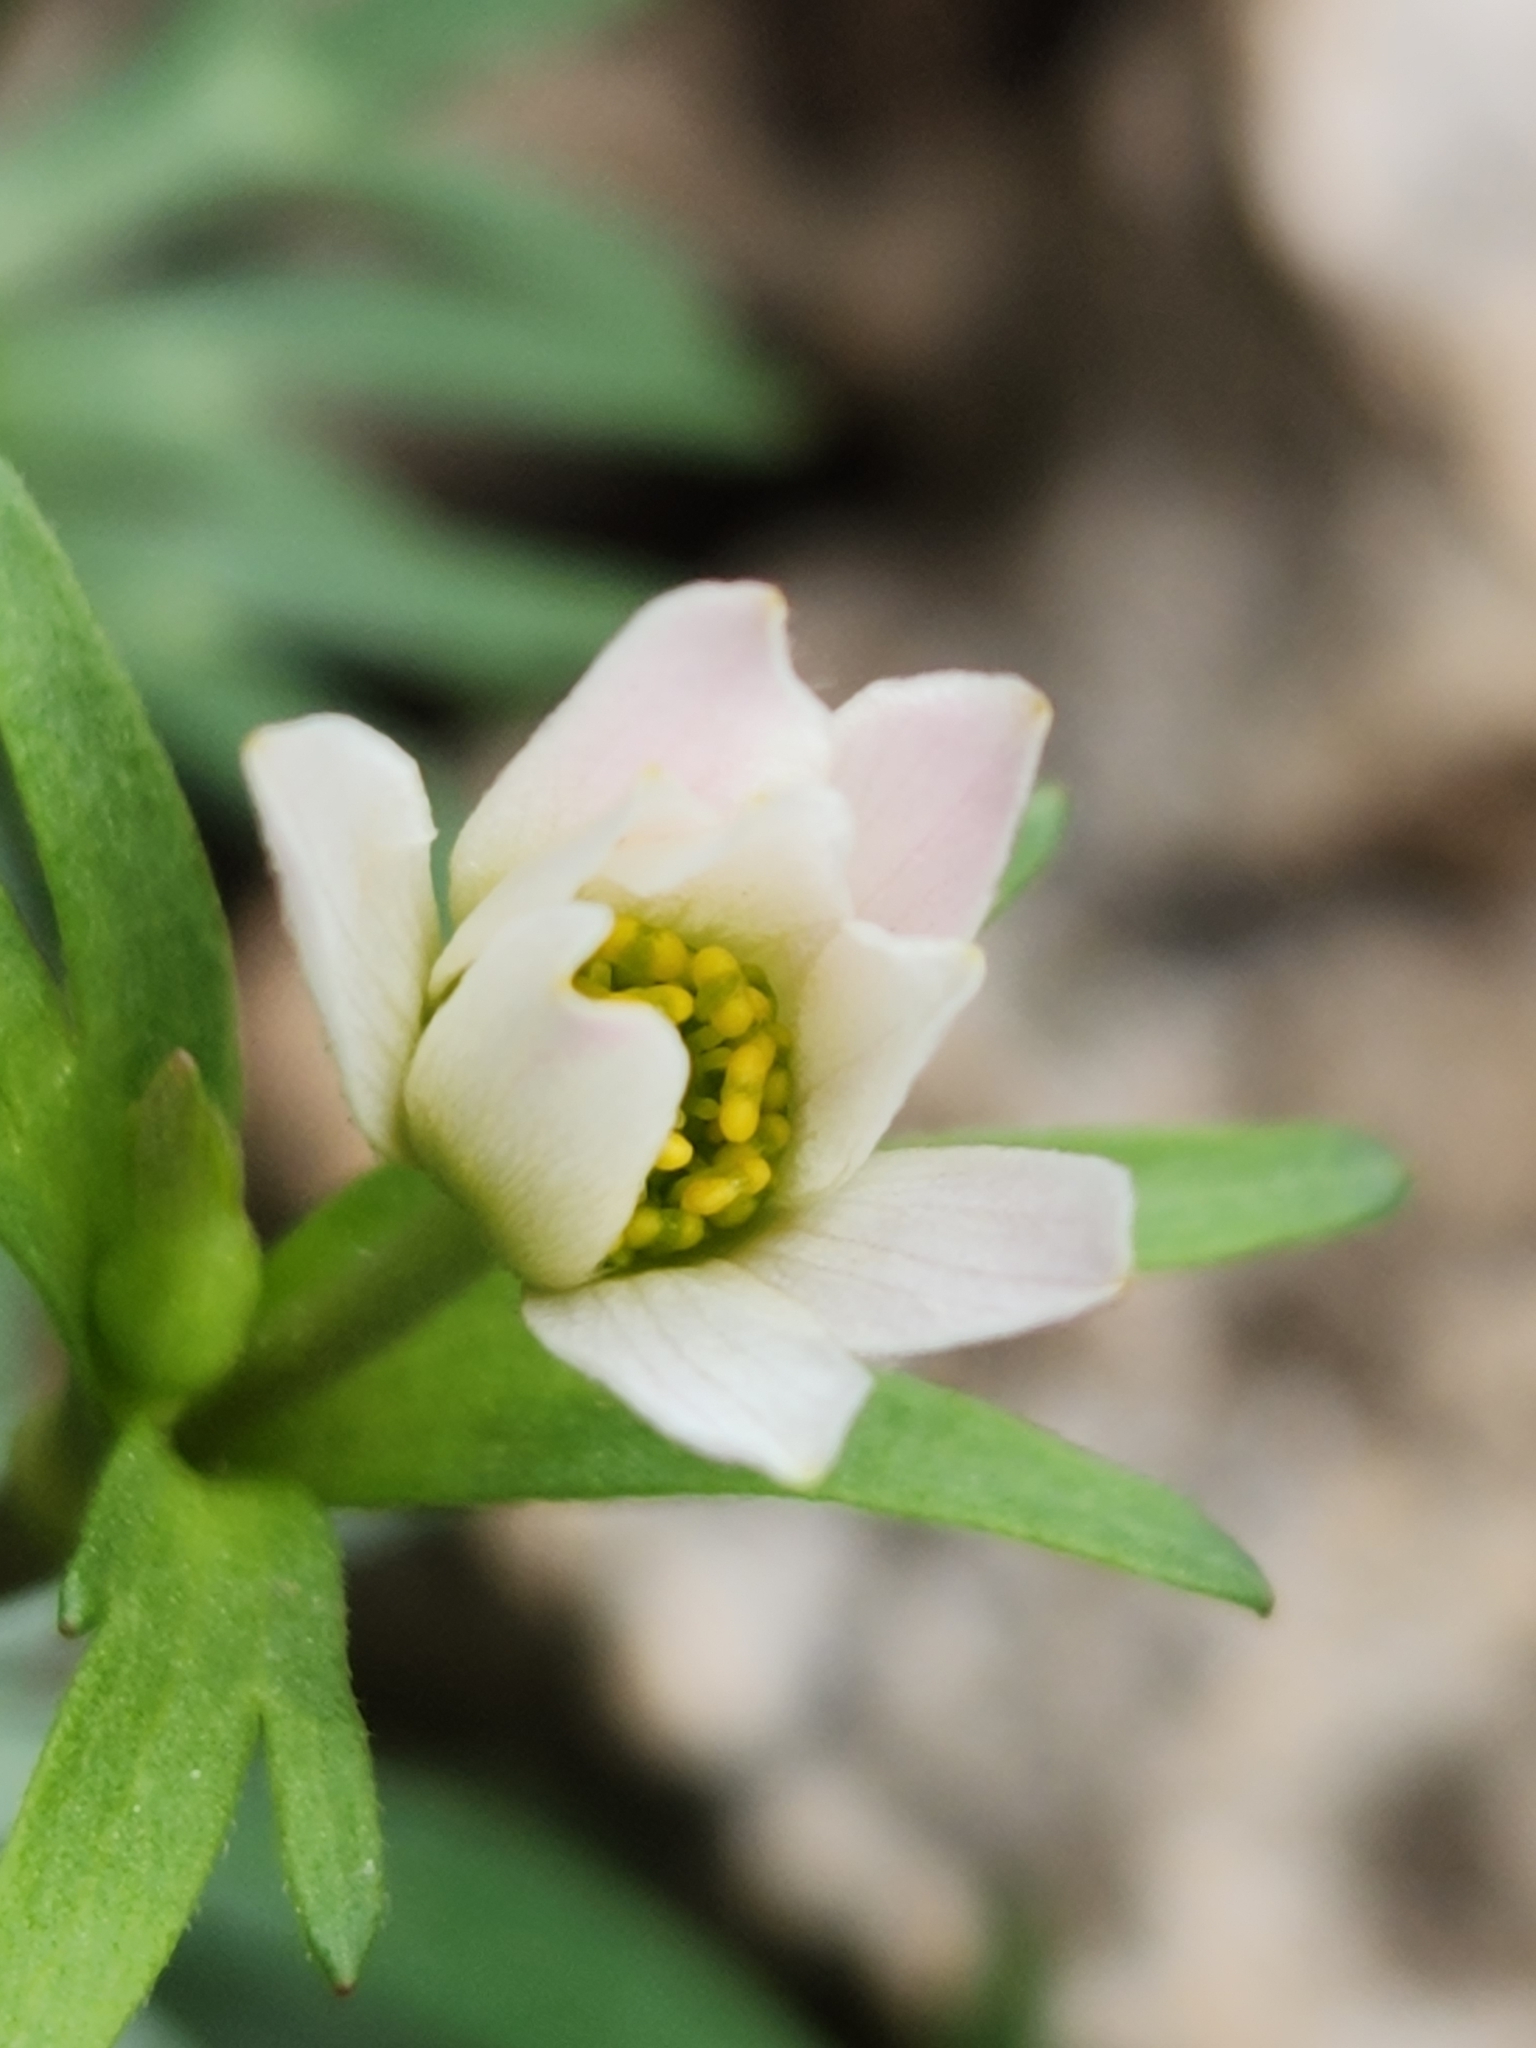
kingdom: Plantae
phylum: Tracheophyta
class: Magnoliopsida
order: Ranunculales
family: Ranunculaceae
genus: Anemone
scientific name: Anemone edwardsiana
